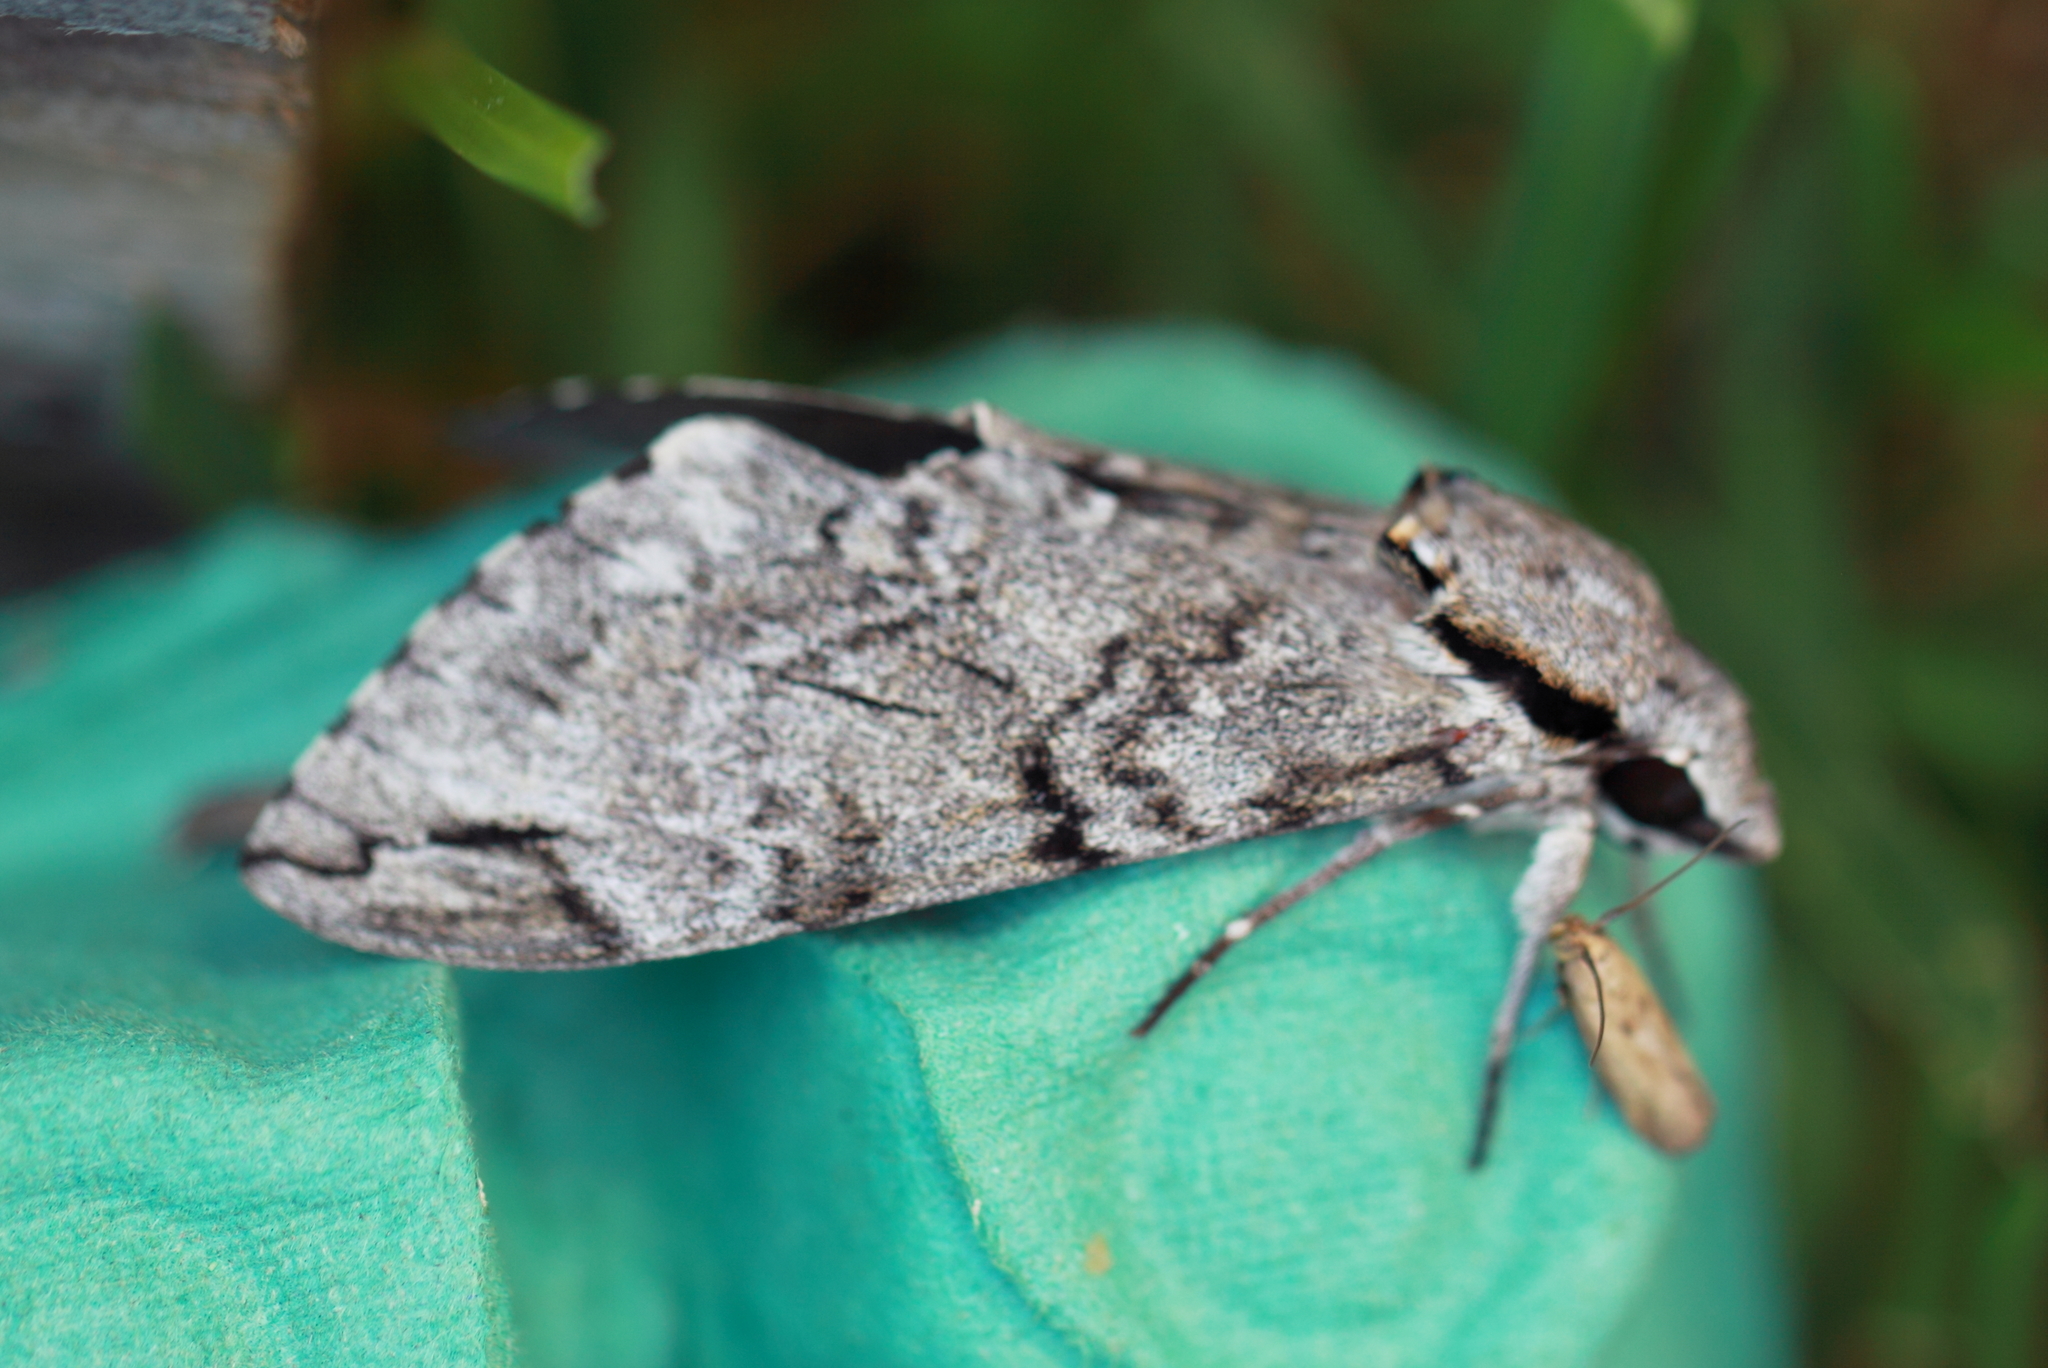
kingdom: Animalia
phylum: Arthropoda
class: Insecta
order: Lepidoptera
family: Sphingidae
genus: Psilogramma
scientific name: Psilogramma casuarinae
